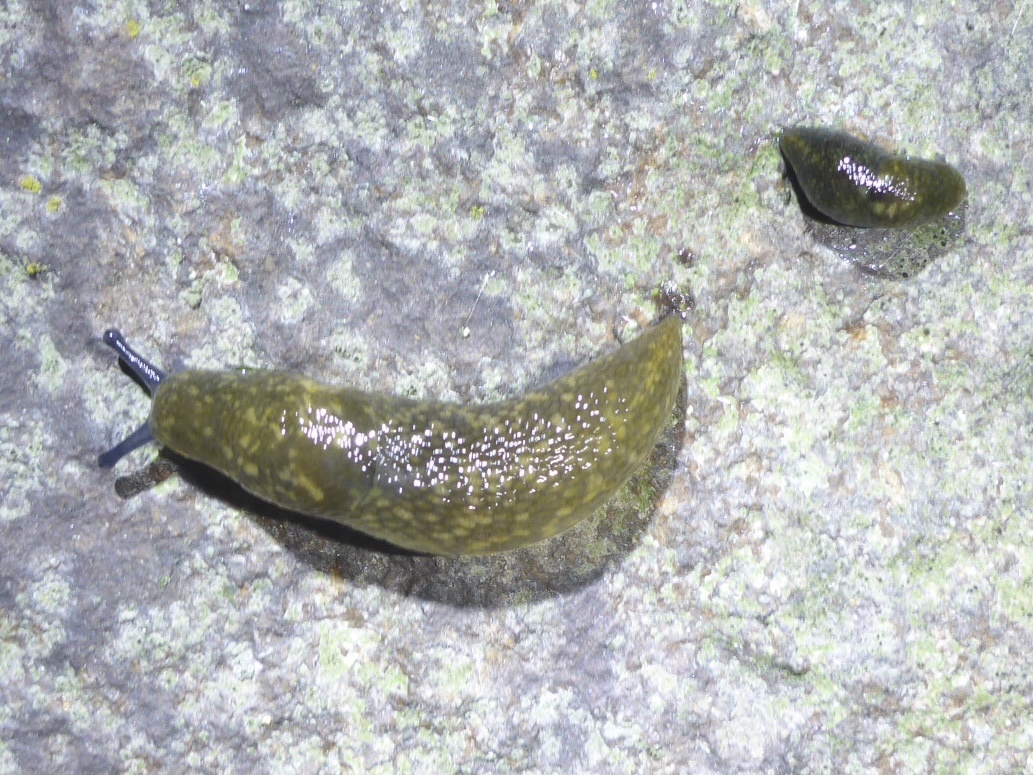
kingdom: Animalia
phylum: Mollusca
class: Gastropoda
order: Stylommatophora
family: Limacidae
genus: Limacus
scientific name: Limacus flavus
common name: Yellow gardenslug
